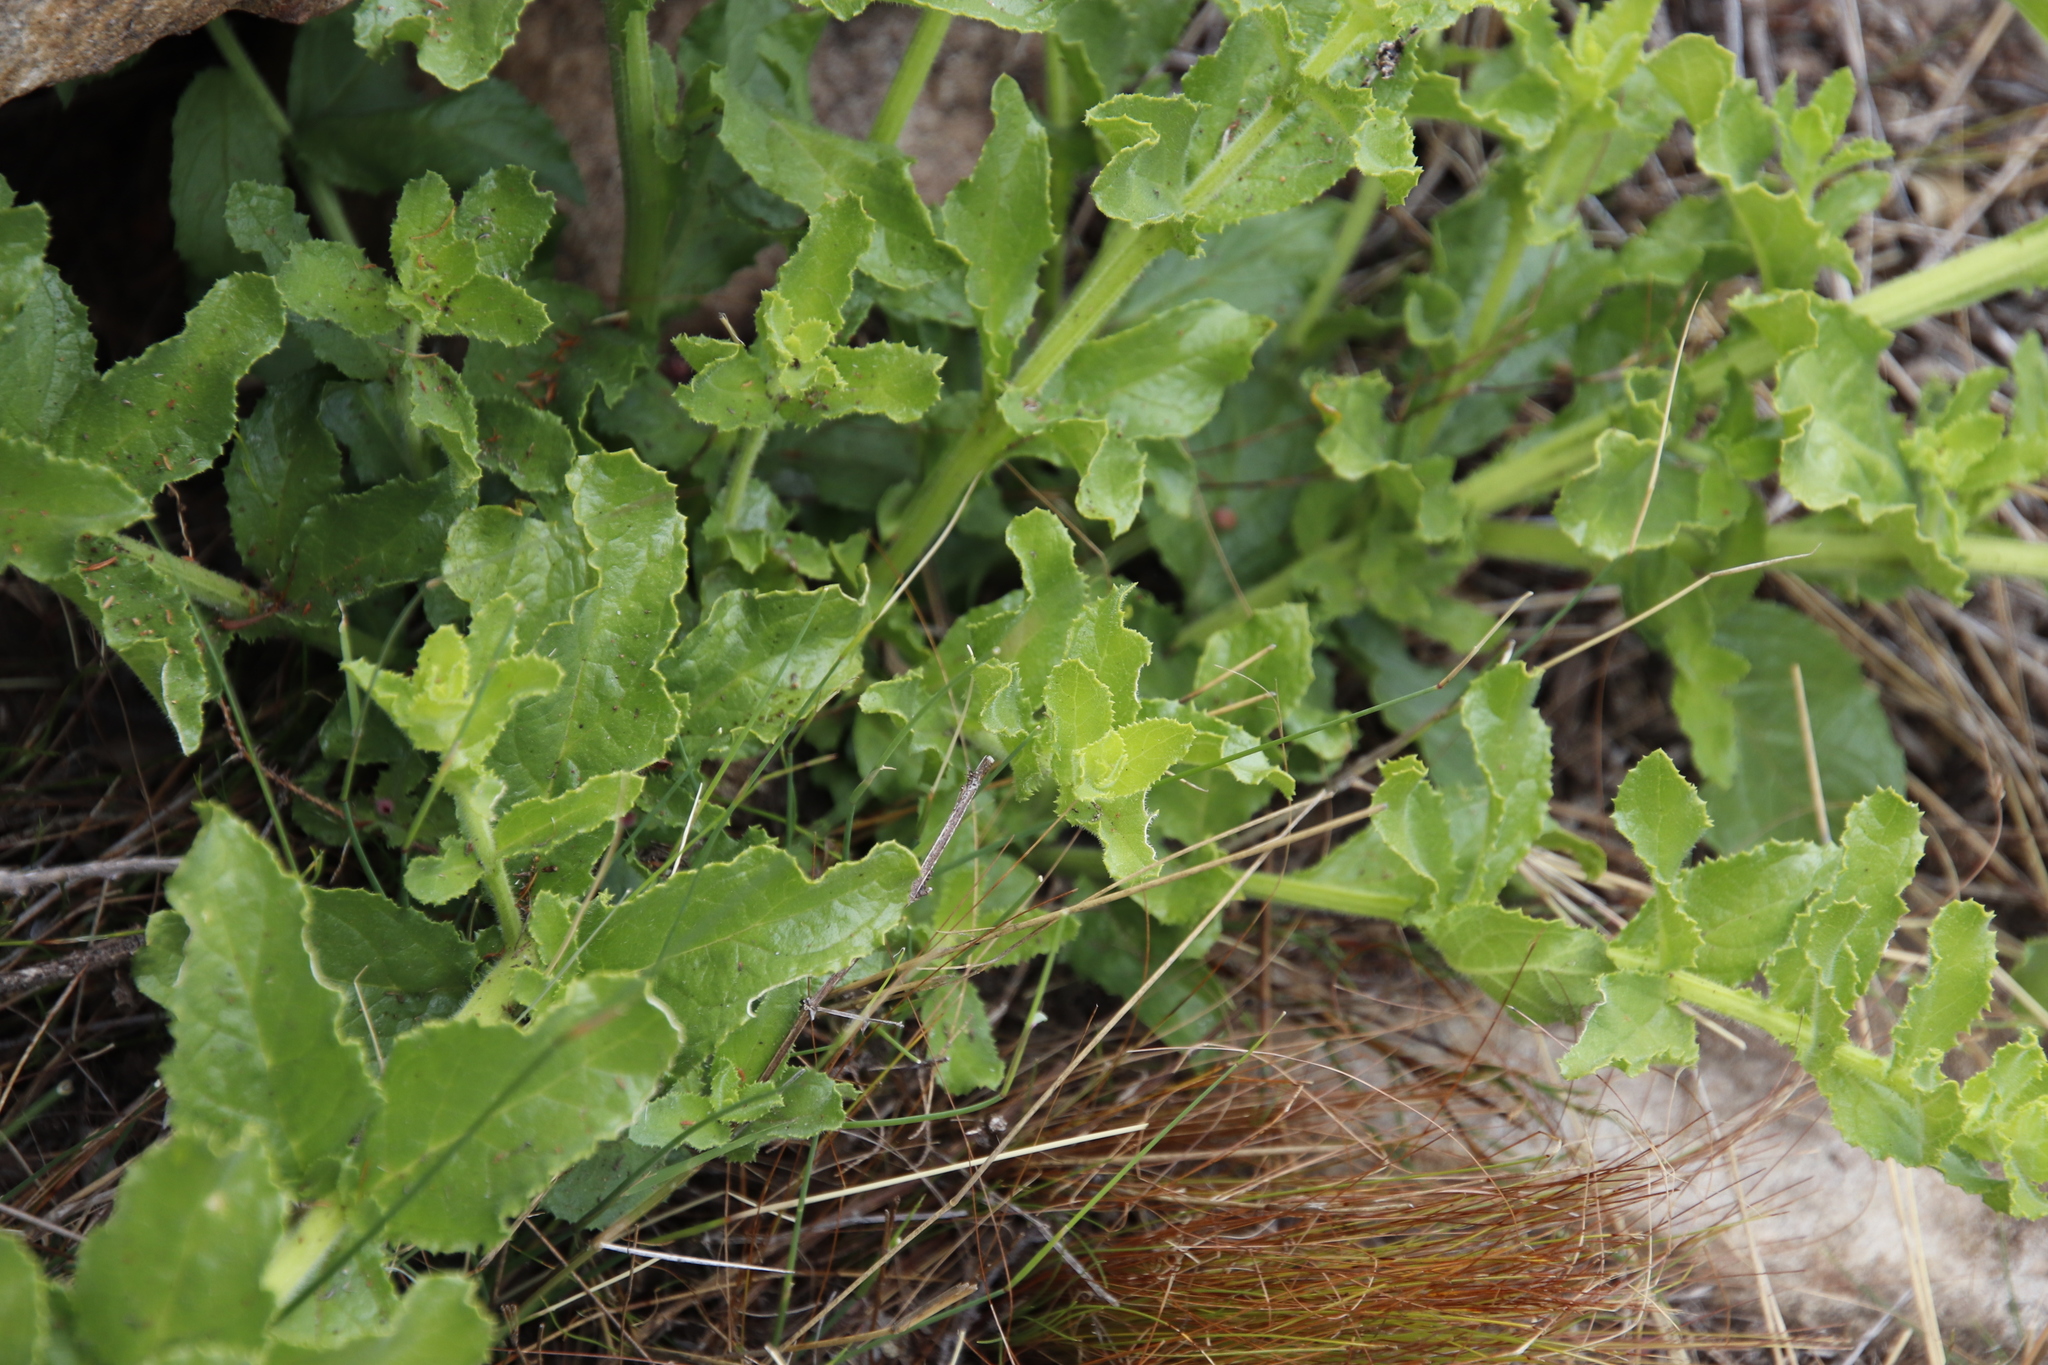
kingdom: Plantae
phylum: Tracheophyta
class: Magnoliopsida
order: Lamiales
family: Scrophulariaceae
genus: Oftia
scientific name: Oftia africana
